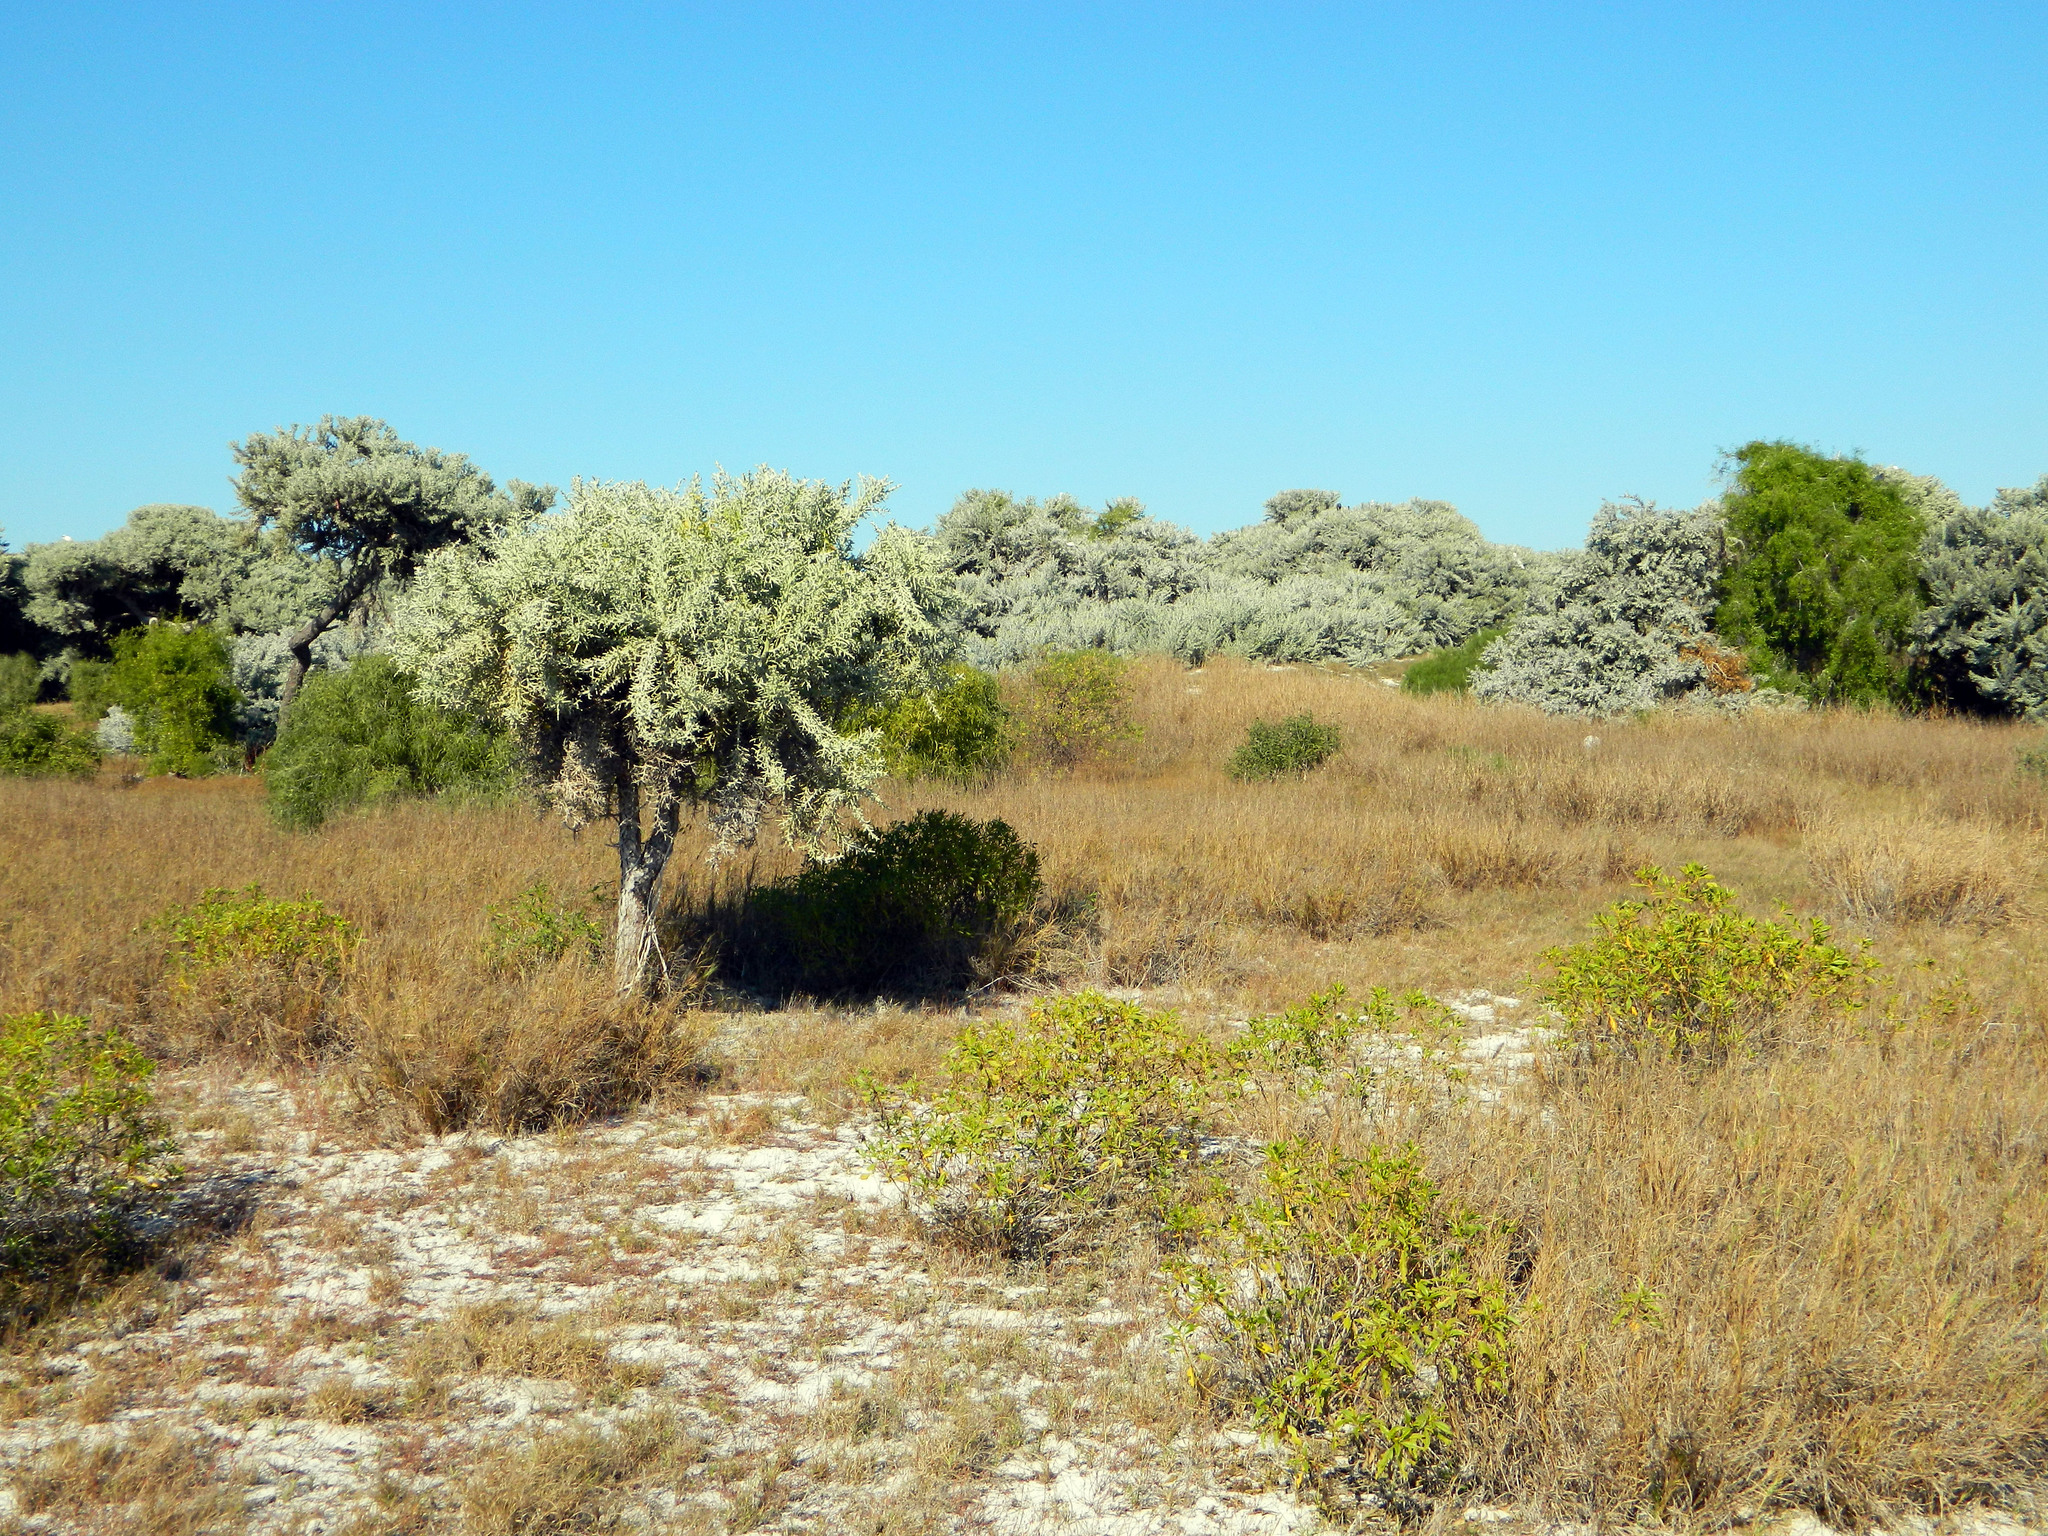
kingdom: Plantae
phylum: Tracheophyta
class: Magnoliopsida
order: Malpighiales
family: Euphorbiaceae
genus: Euphorbia
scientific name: Euphorbia stenoclada
